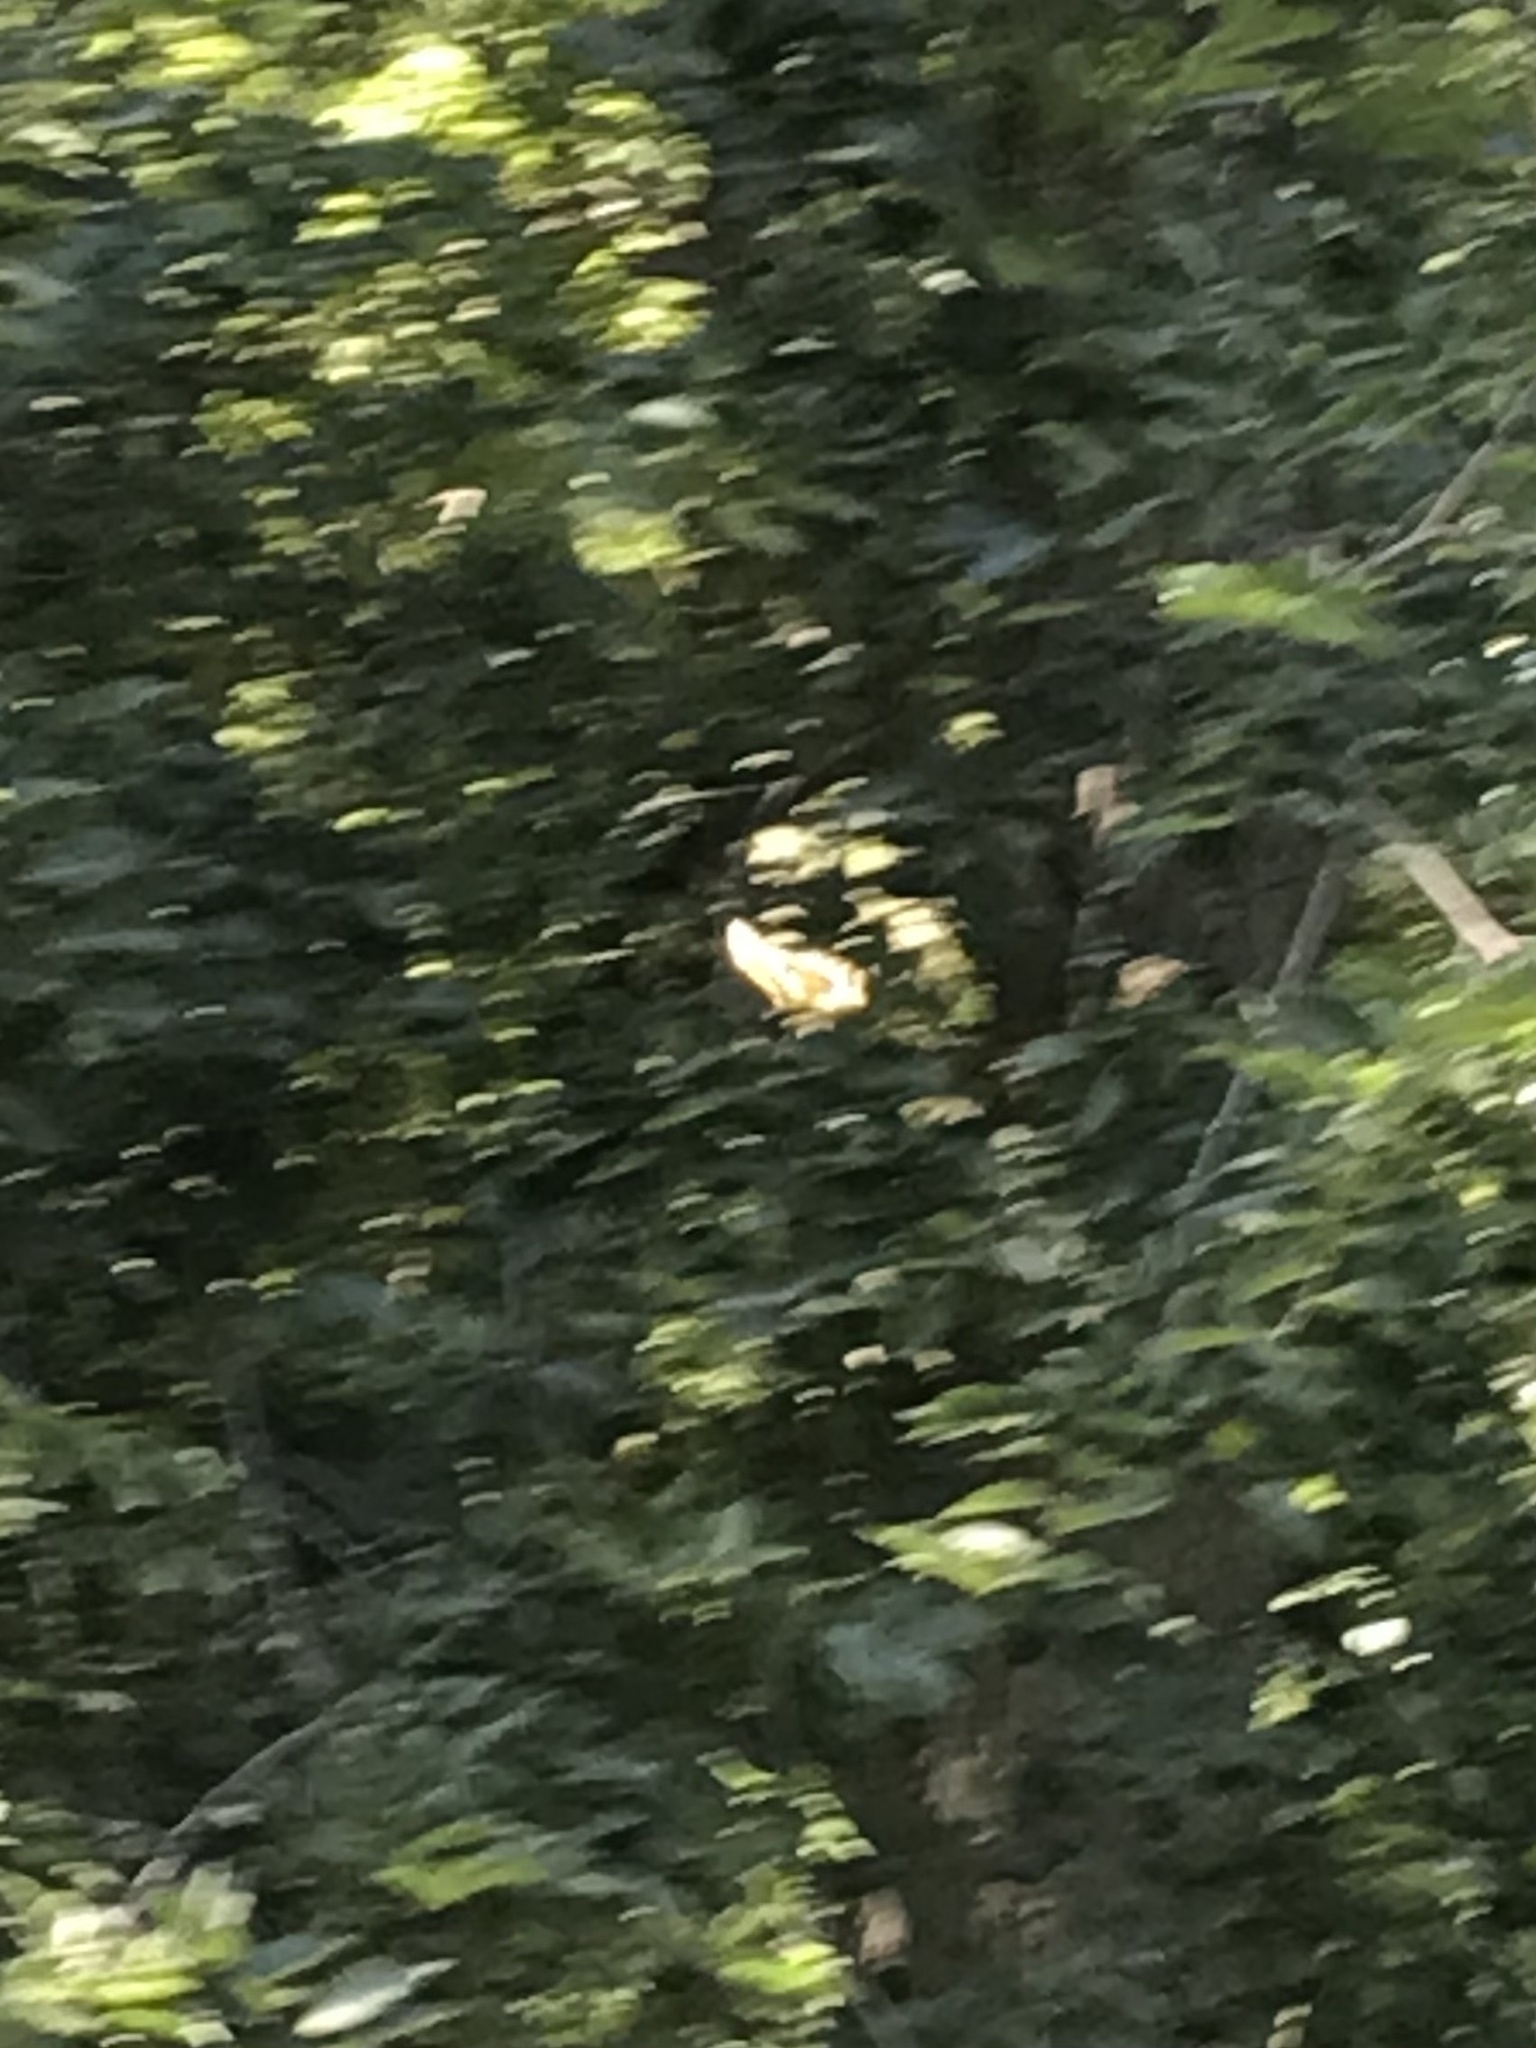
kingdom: Animalia
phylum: Arthropoda
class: Insecta
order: Lepidoptera
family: Papilionidae
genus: Papilio
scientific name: Papilio cresphontes
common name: Giant swallowtail
